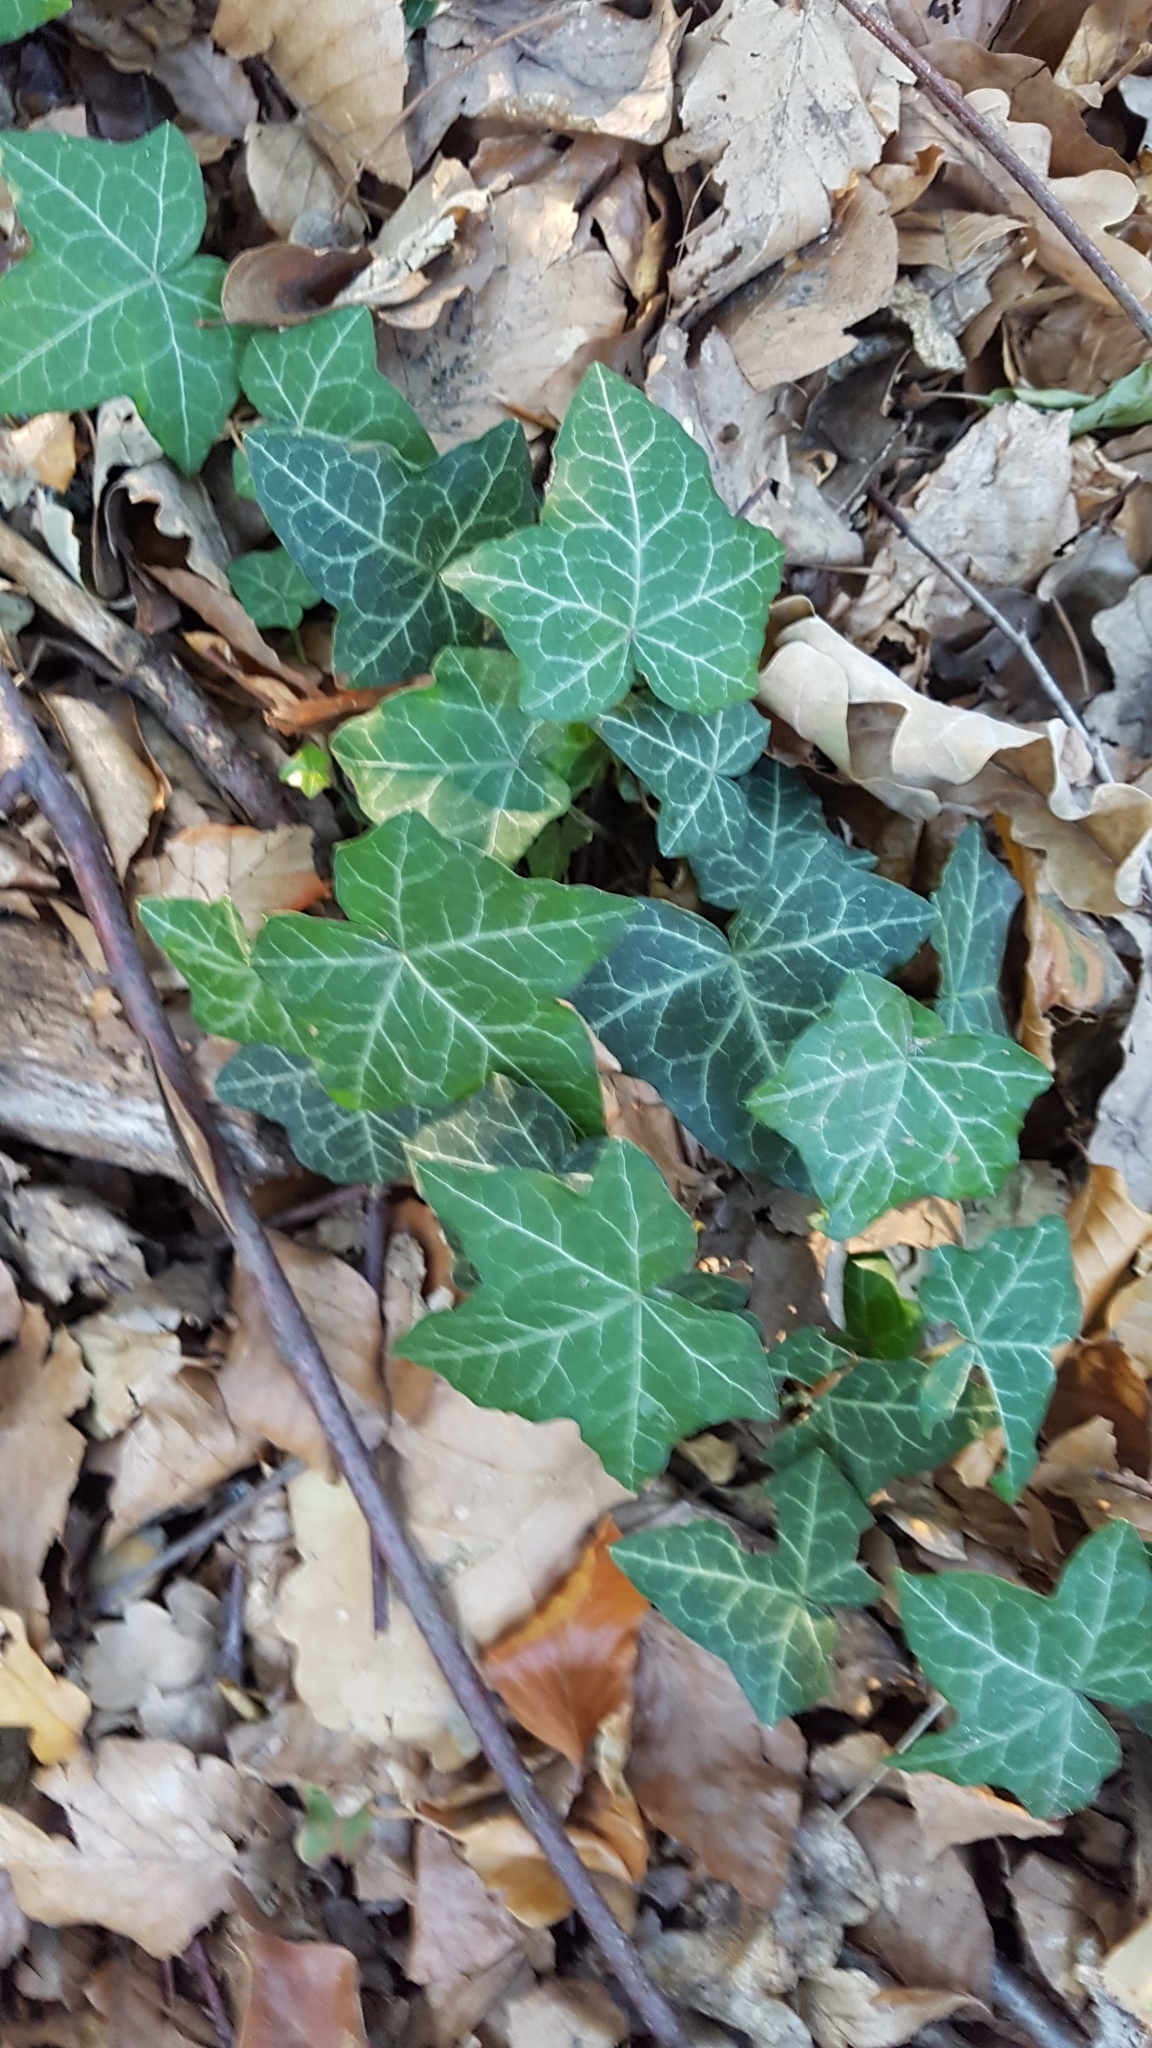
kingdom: Plantae
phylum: Tracheophyta
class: Magnoliopsida
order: Apiales
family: Araliaceae
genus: Hedera
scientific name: Hedera helix
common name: Ivy
